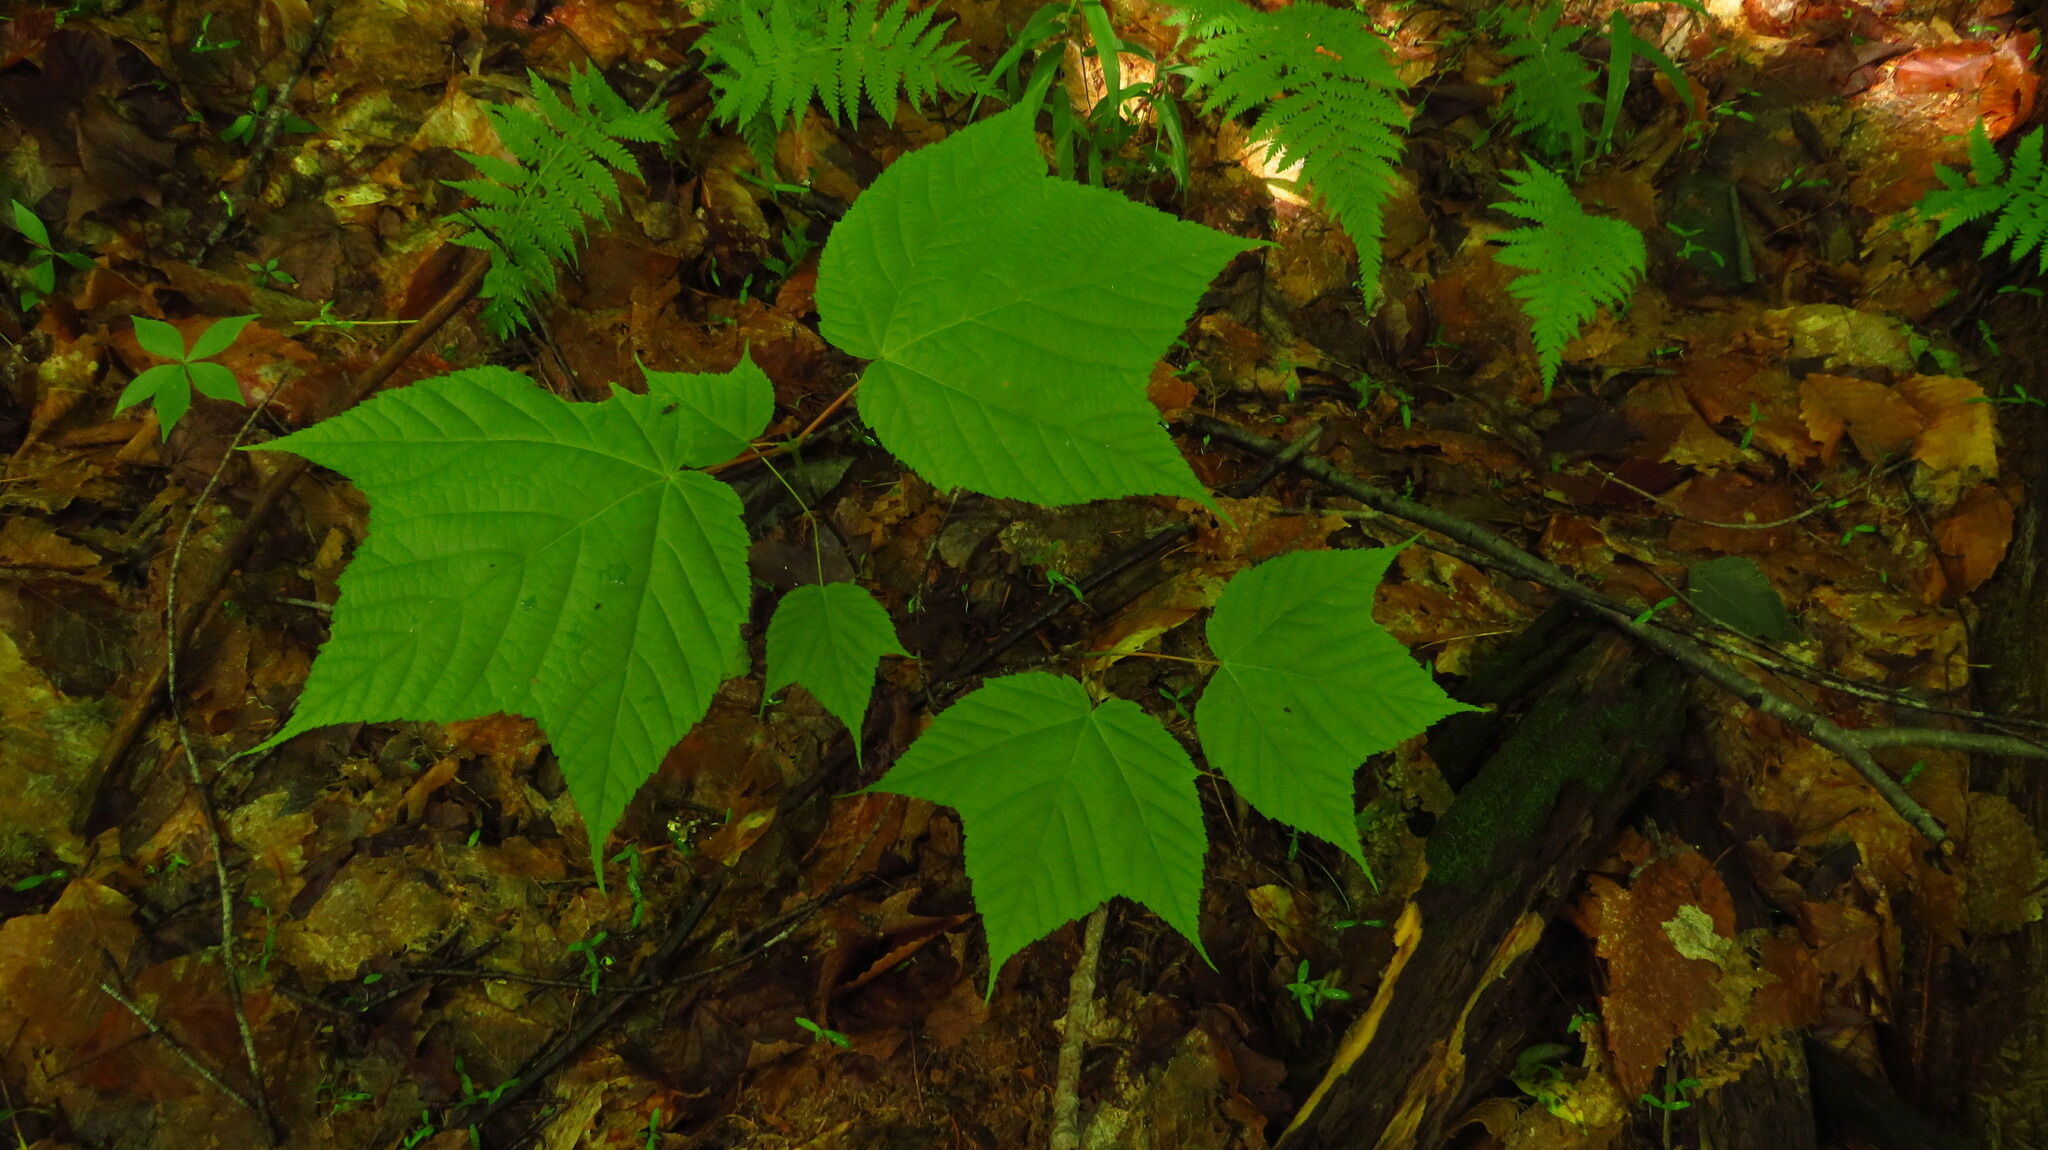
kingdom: Plantae
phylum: Tracheophyta
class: Magnoliopsida
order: Sapindales
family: Sapindaceae
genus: Acer
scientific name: Acer pensylvanicum
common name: Moosewood
